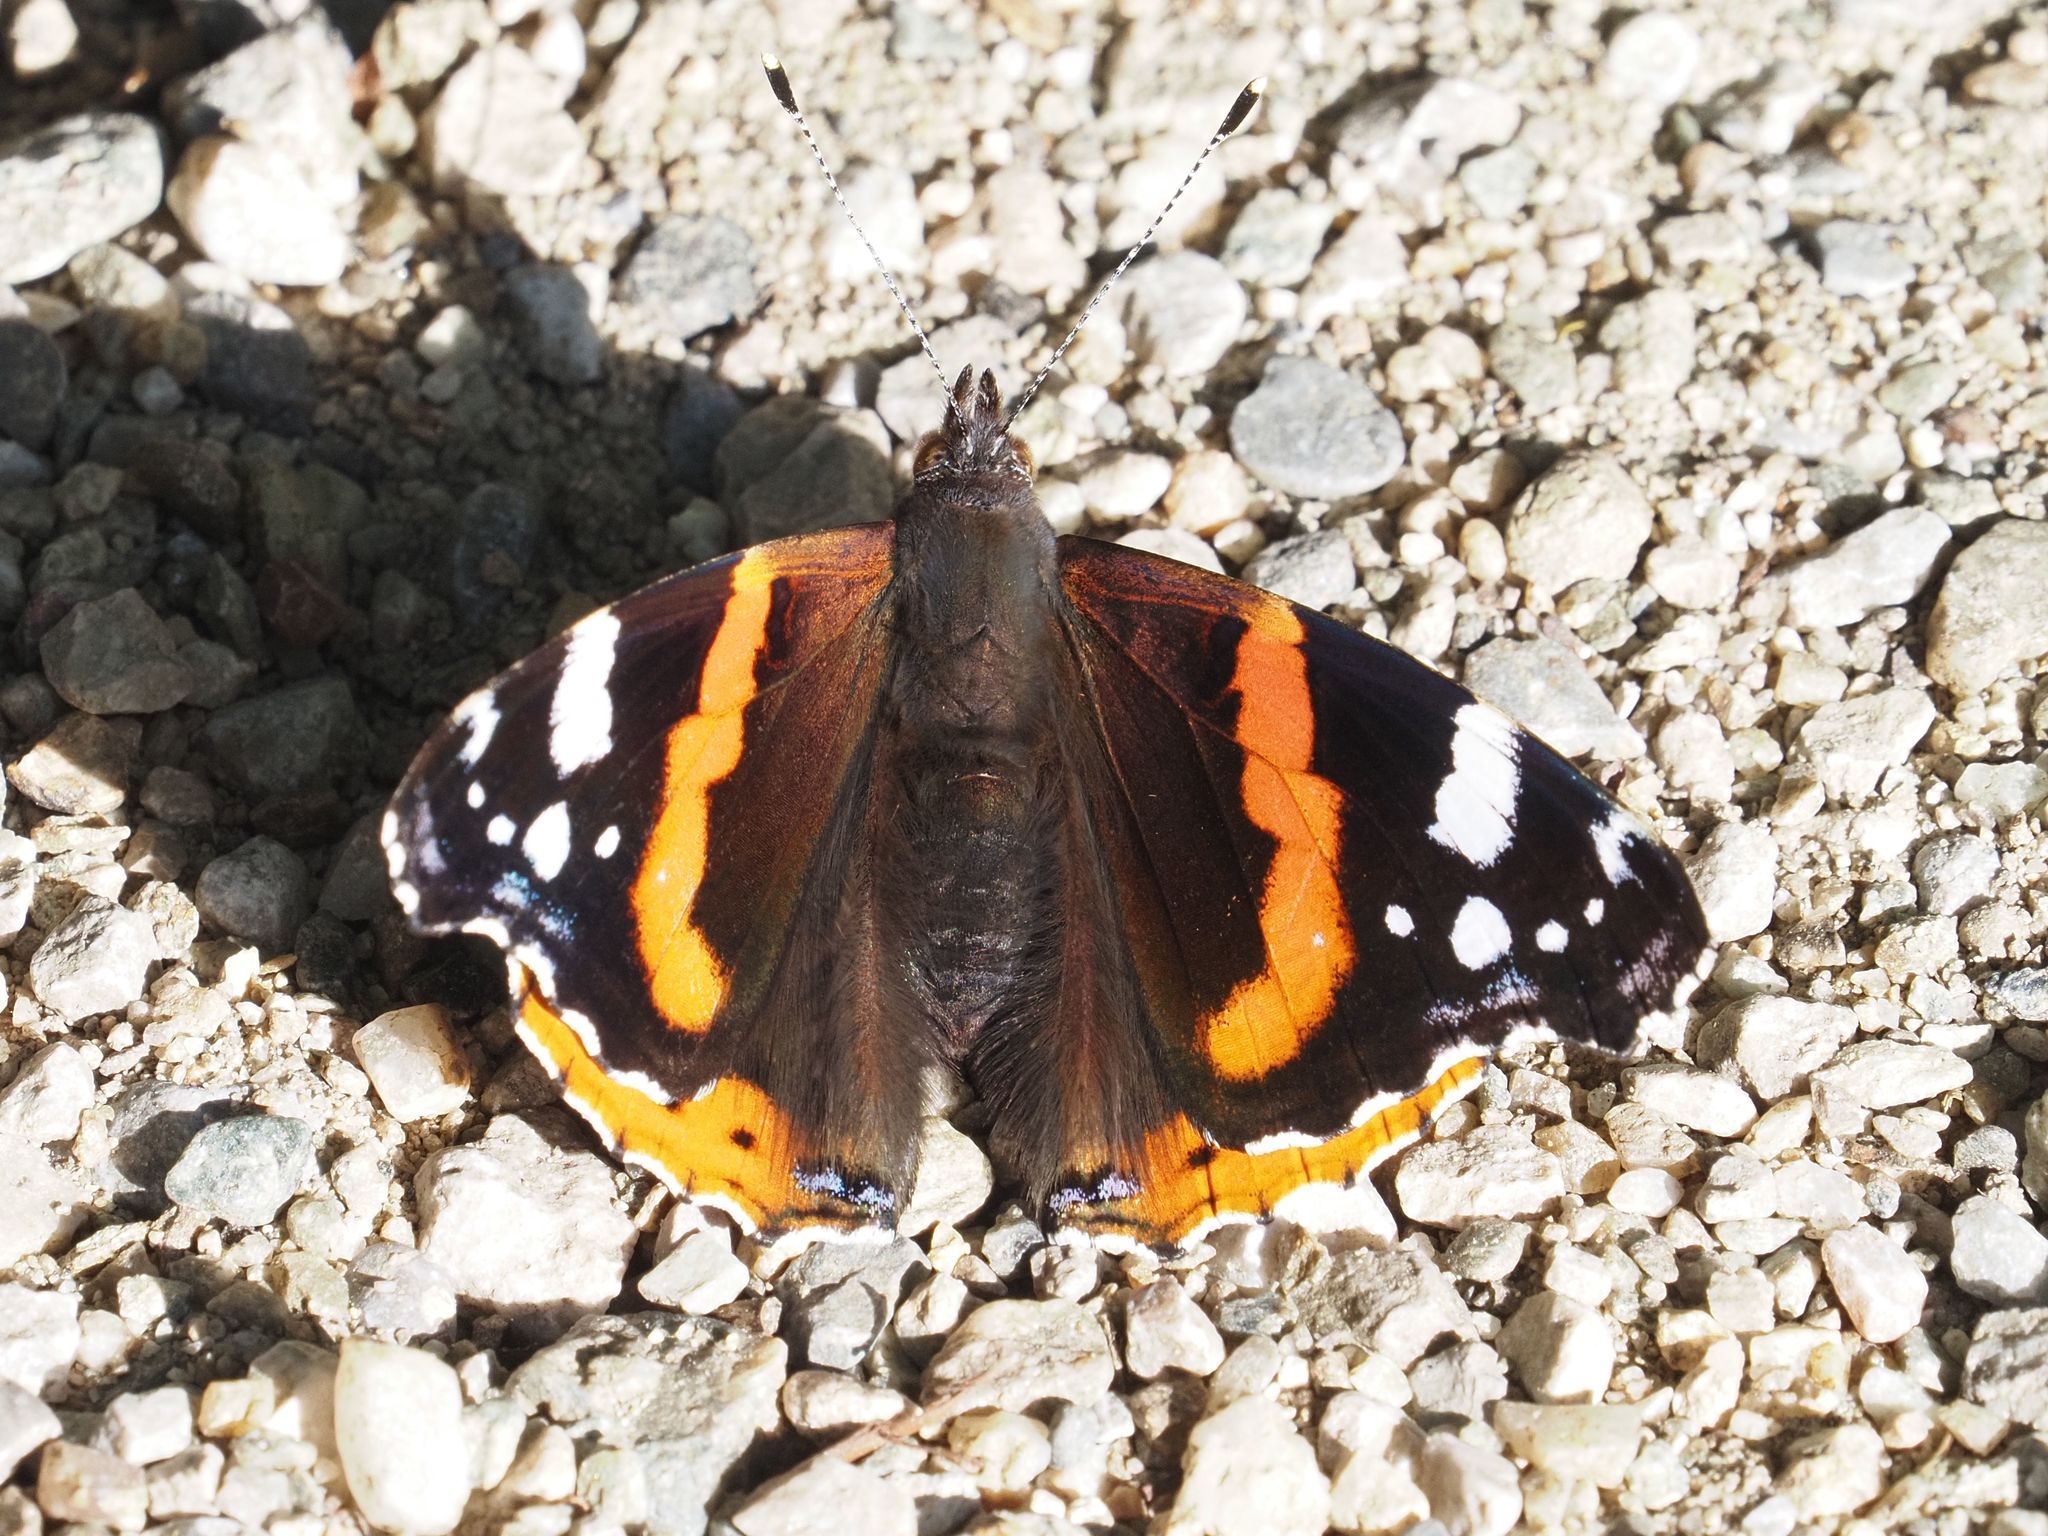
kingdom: Animalia
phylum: Arthropoda
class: Insecta
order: Lepidoptera
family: Nymphalidae
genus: Vanessa
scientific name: Vanessa atalanta
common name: Red admiral
